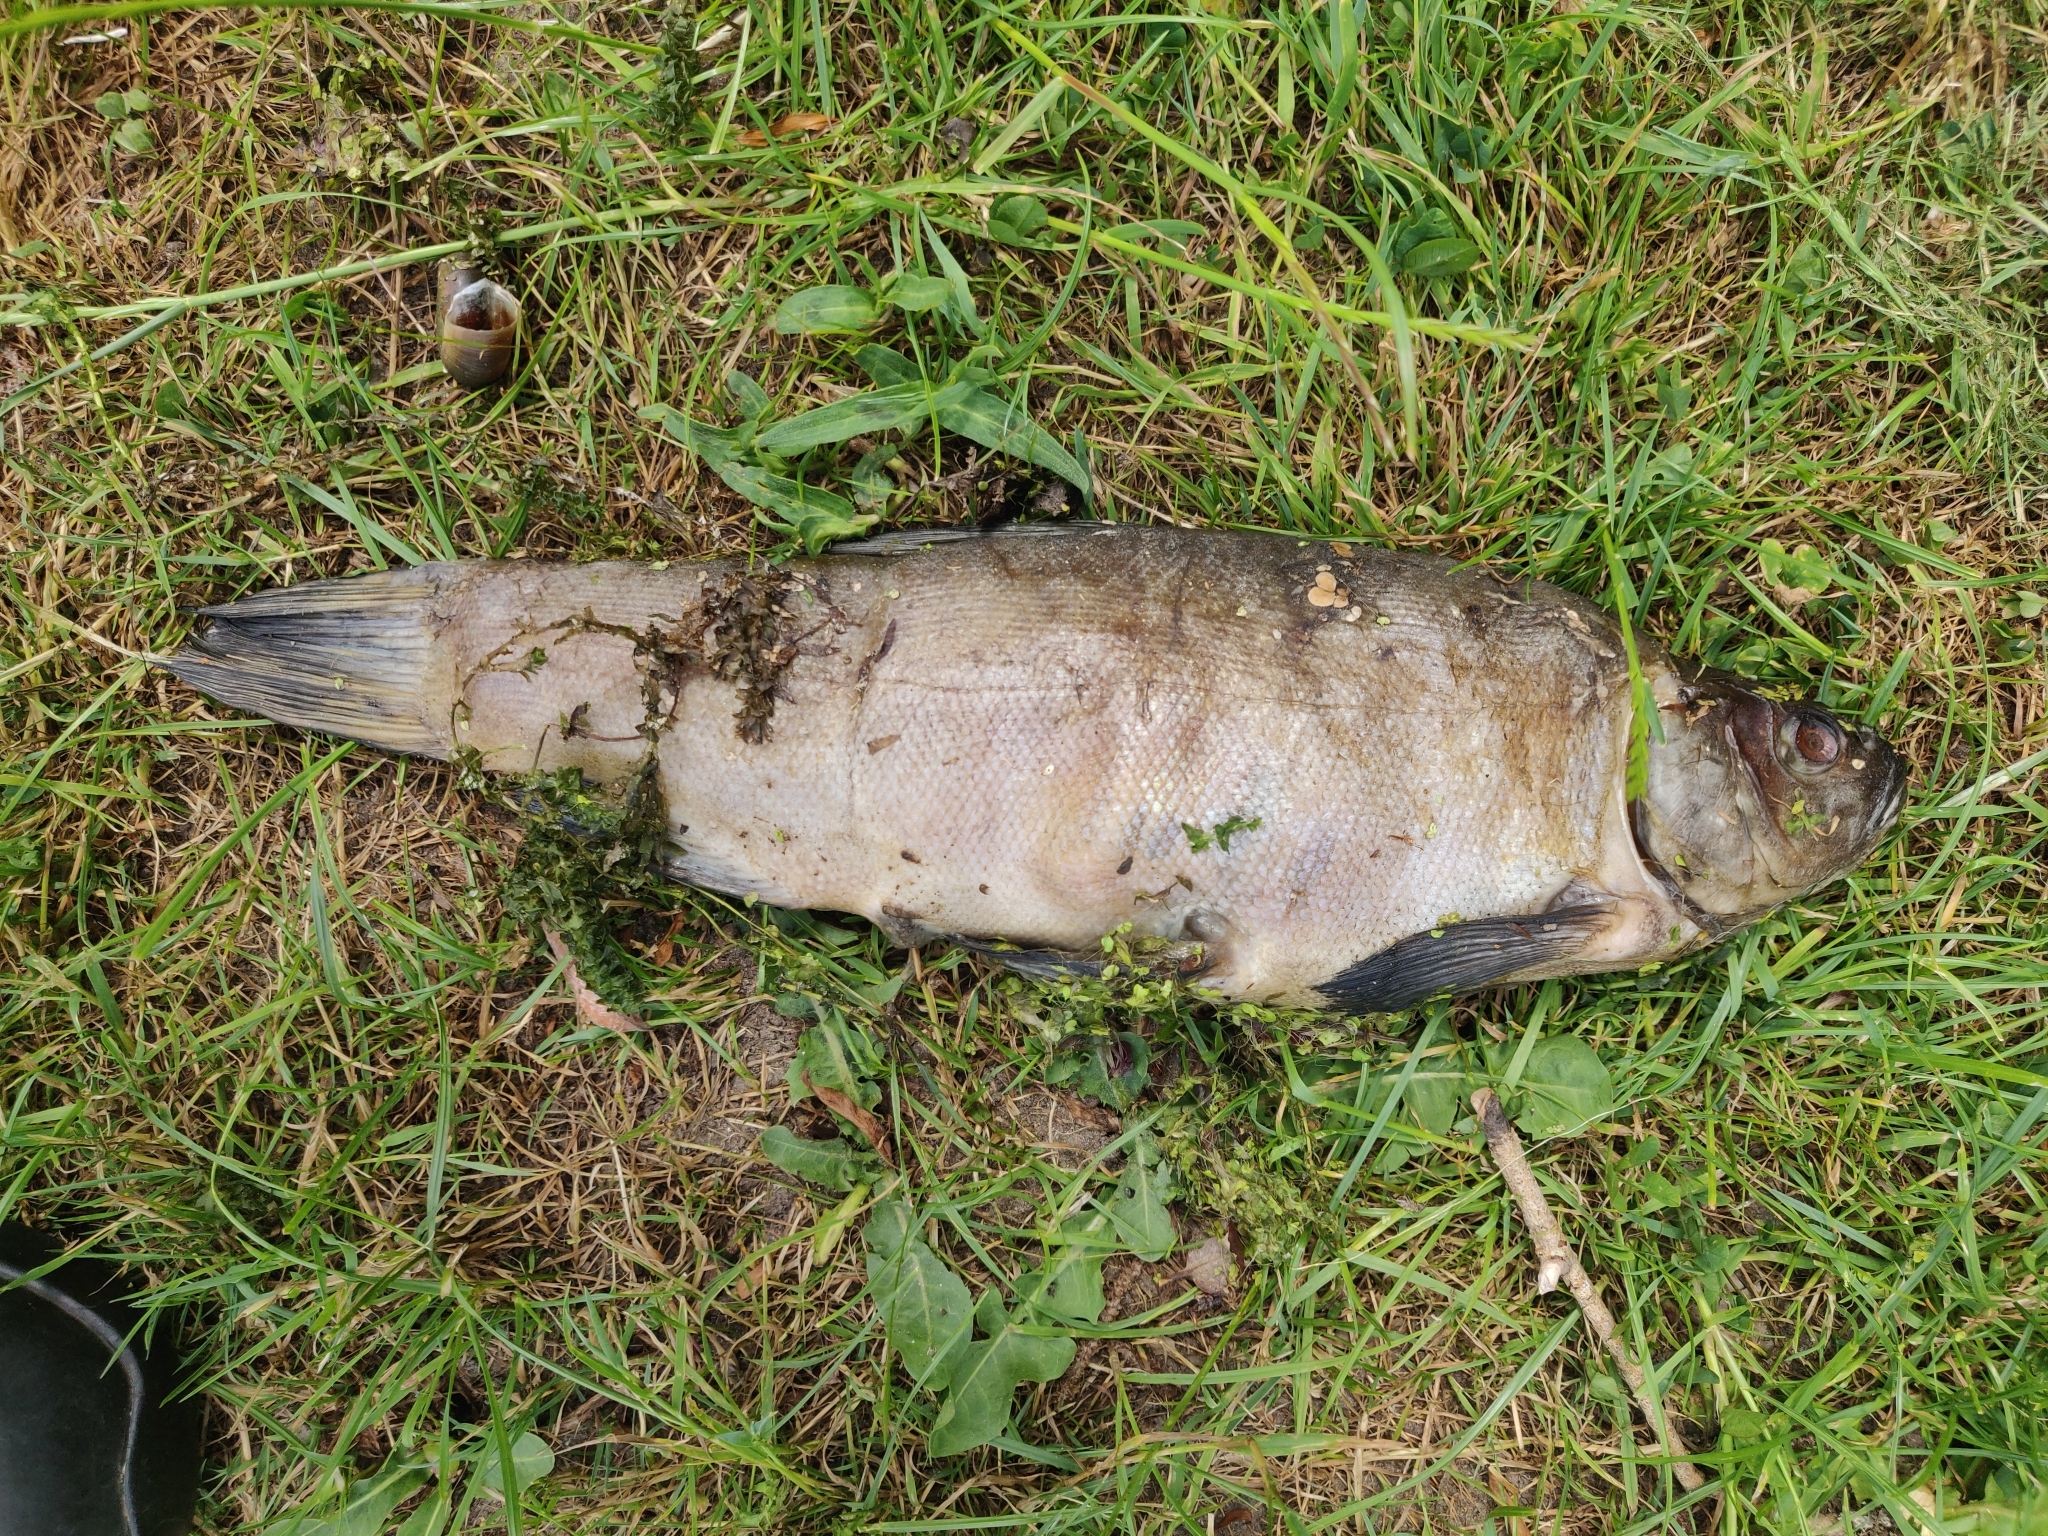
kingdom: Animalia
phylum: Chordata
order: Cypriniformes
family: Cyprinidae
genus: Tinca
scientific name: Tinca tinca
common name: Tench
